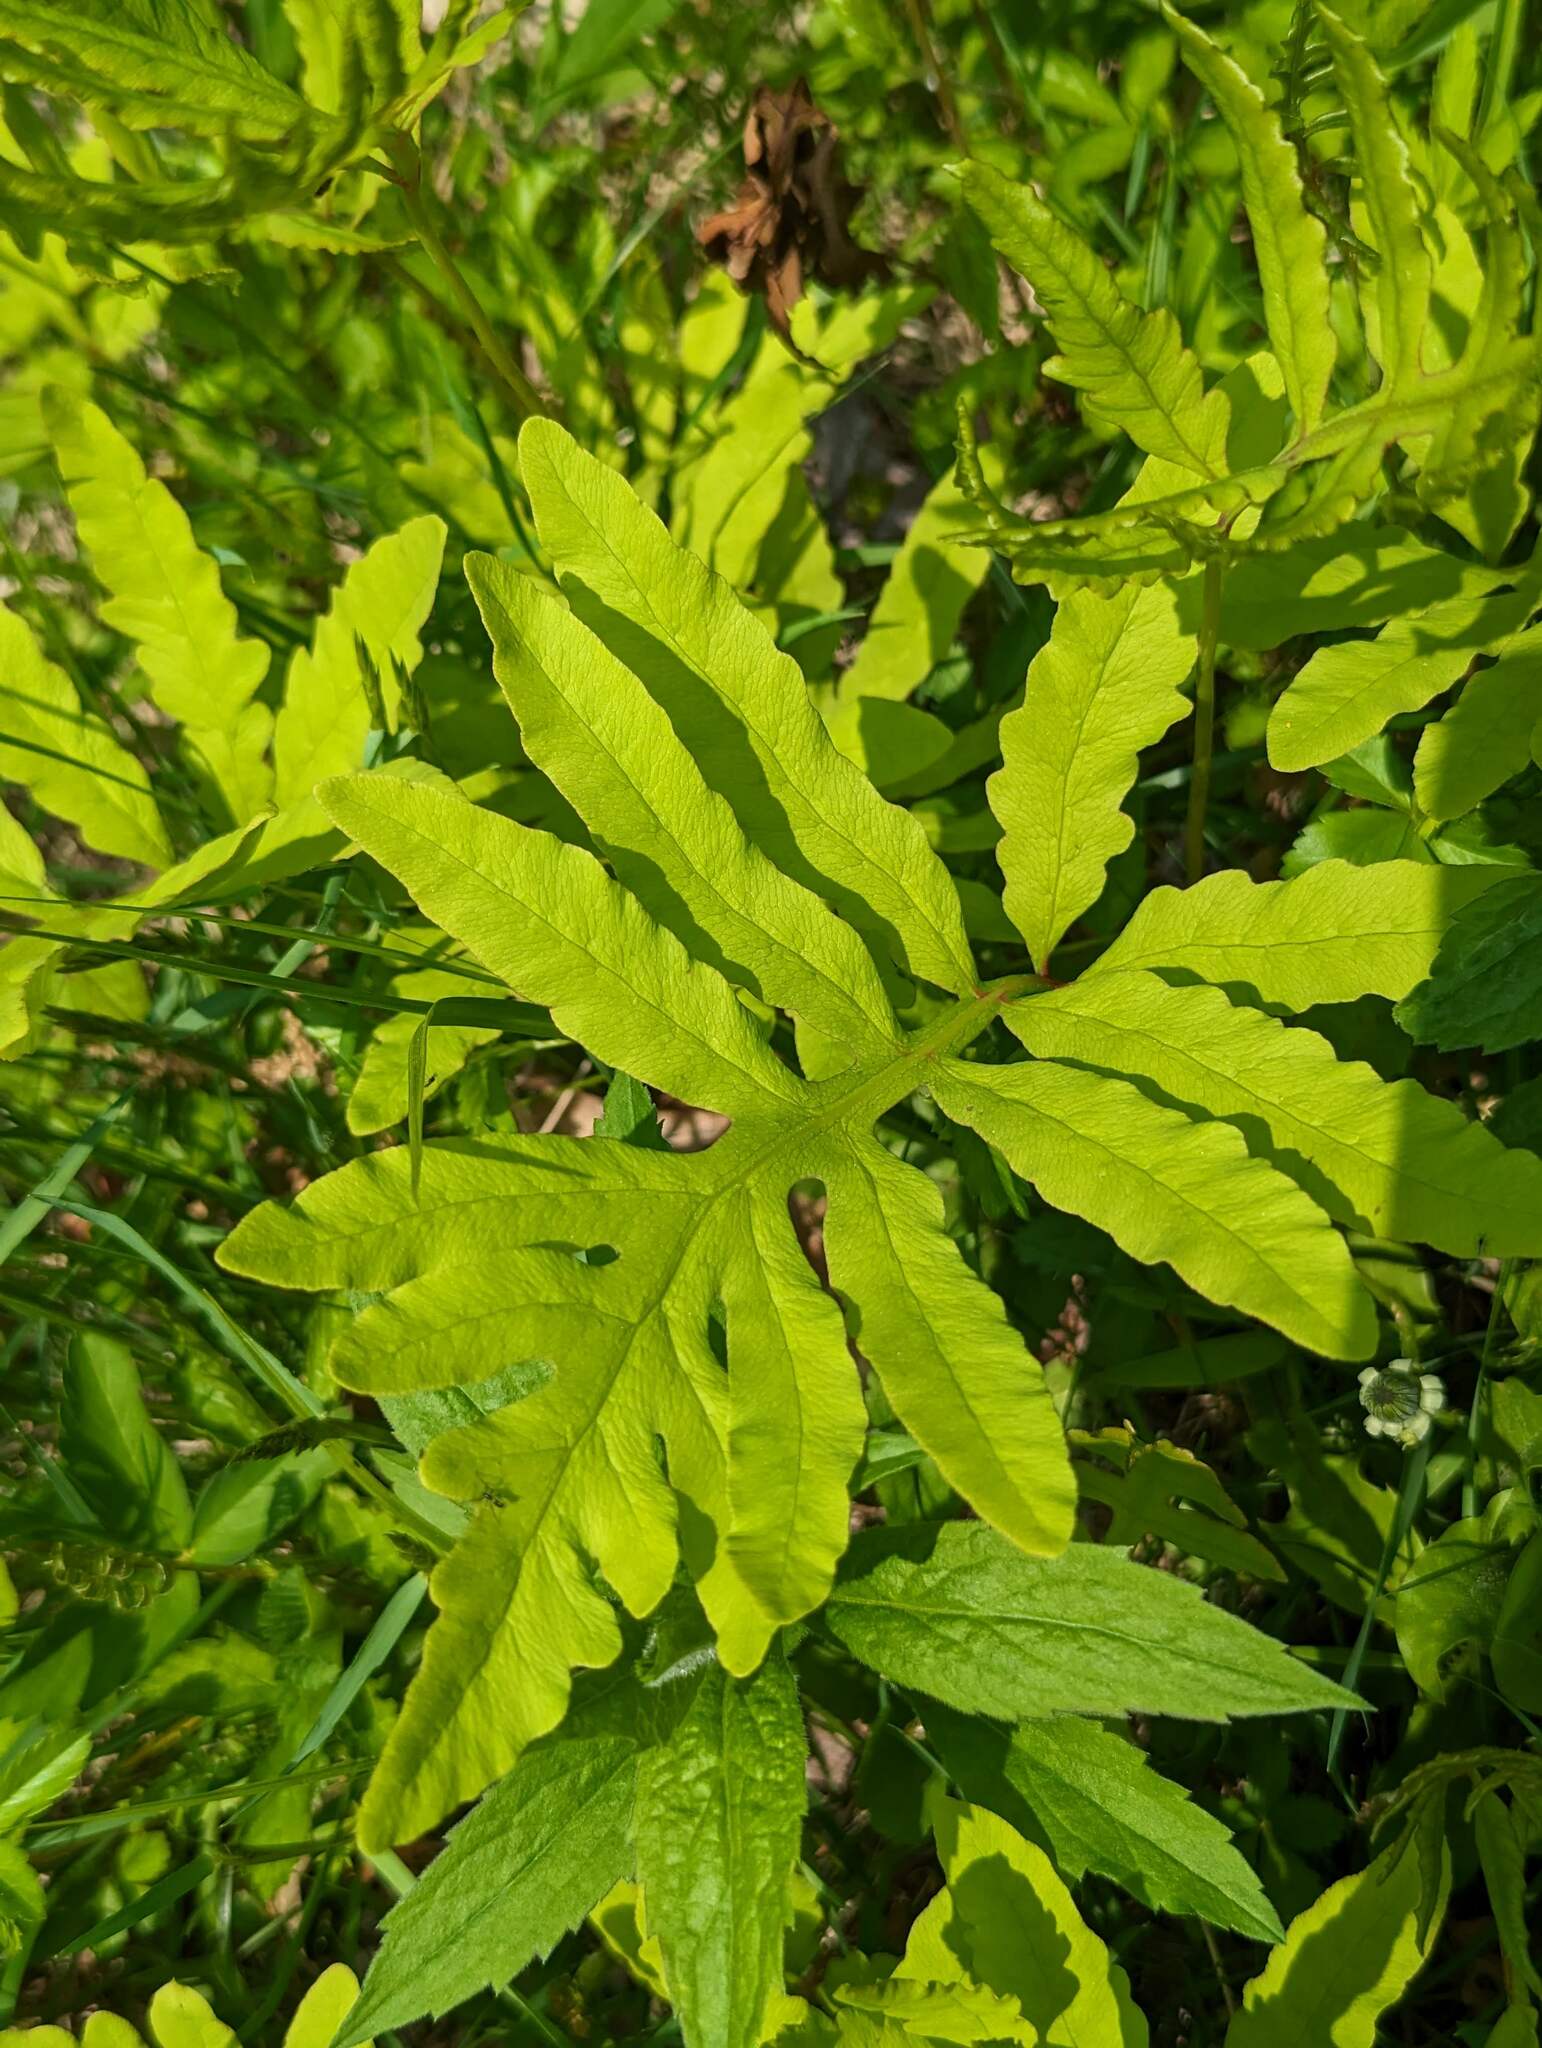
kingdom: Plantae
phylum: Tracheophyta
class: Polypodiopsida
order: Polypodiales
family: Onocleaceae
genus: Onoclea
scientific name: Onoclea sensibilis
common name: Sensitive fern
